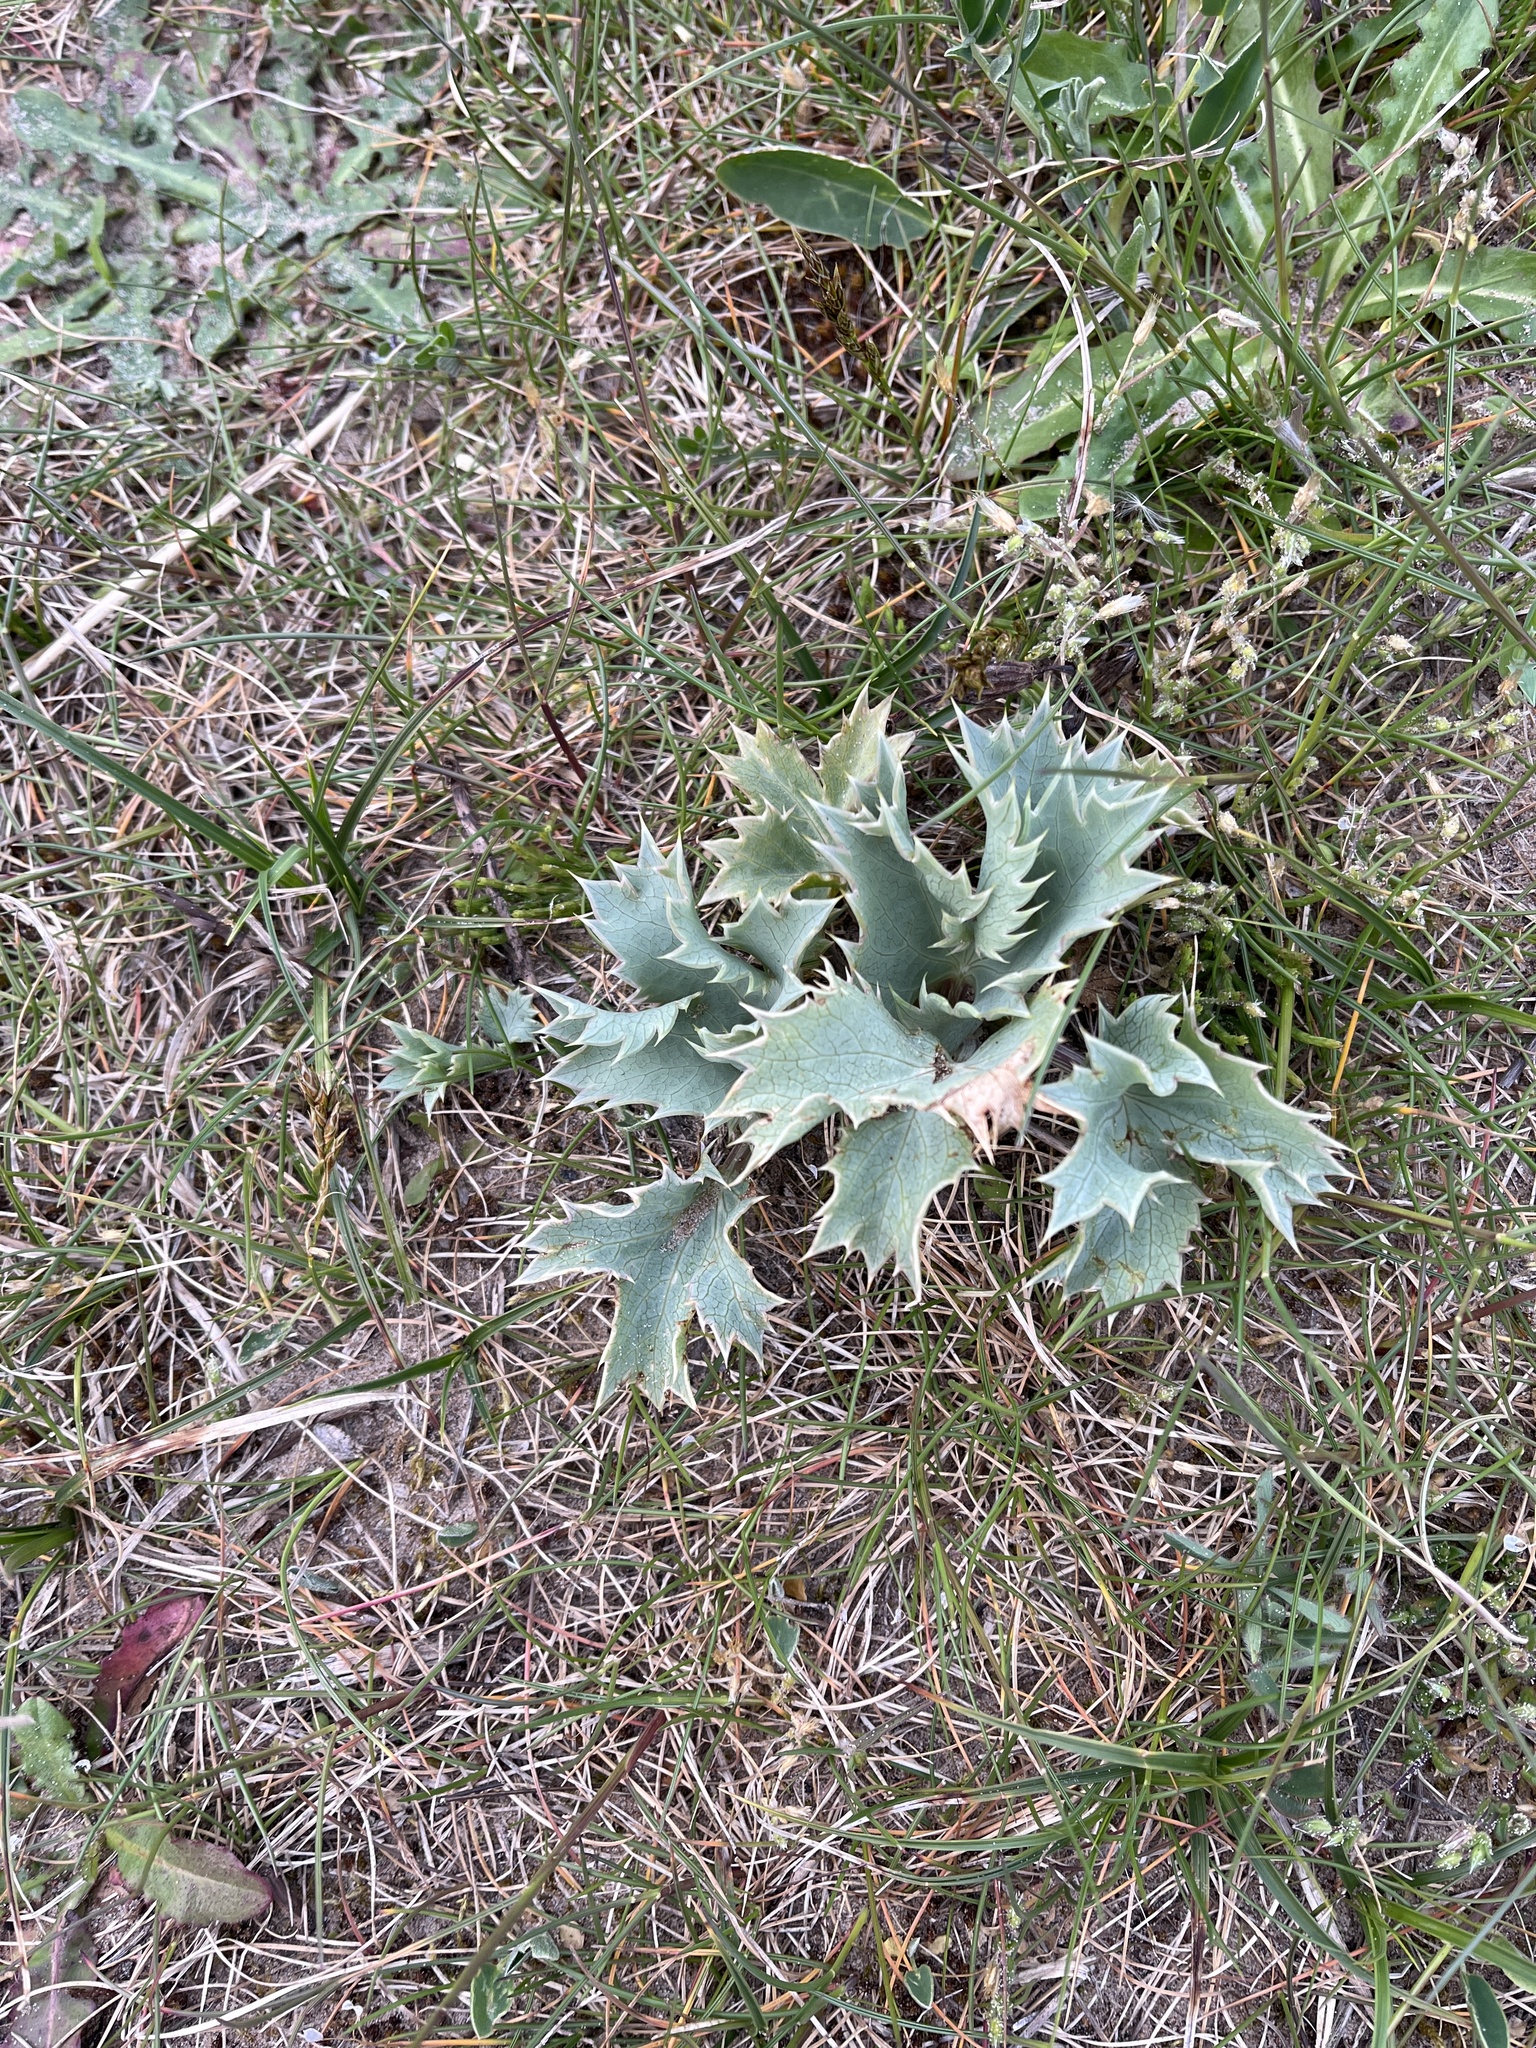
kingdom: Plantae
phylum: Tracheophyta
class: Magnoliopsida
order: Apiales
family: Apiaceae
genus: Eryngium
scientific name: Eryngium maritimum
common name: Sea-holly
